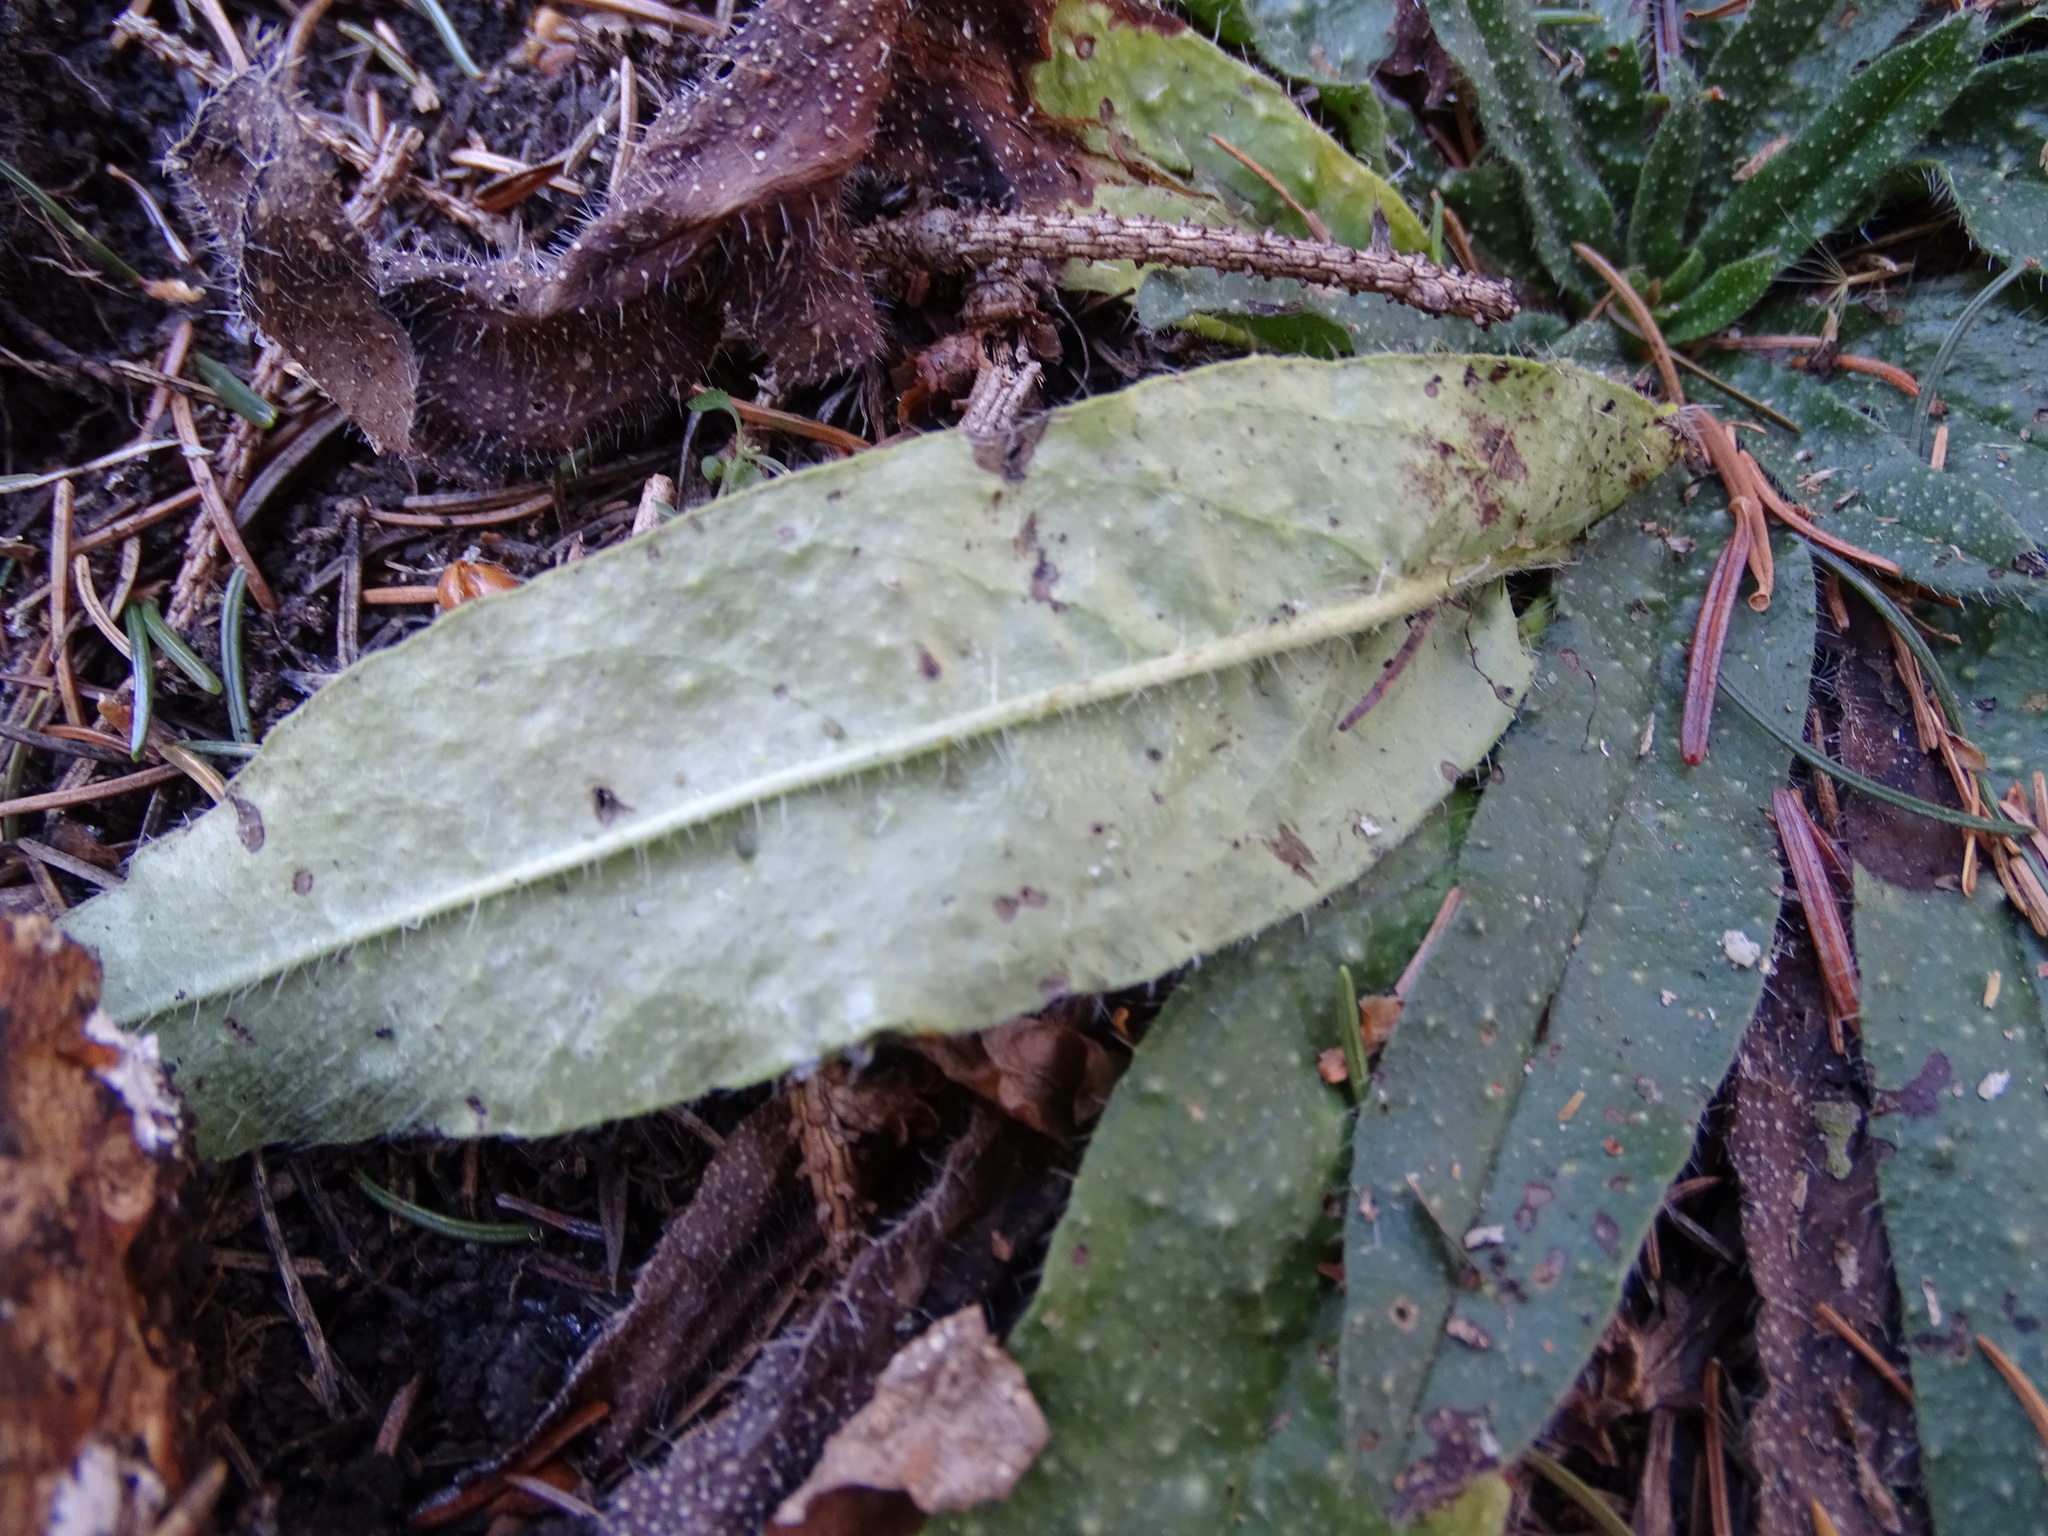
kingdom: Plantae
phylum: Tracheophyta
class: Magnoliopsida
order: Boraginales
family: Boraginaceae
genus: Echium
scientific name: Echium vulgare
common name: Common viper's bugloss
